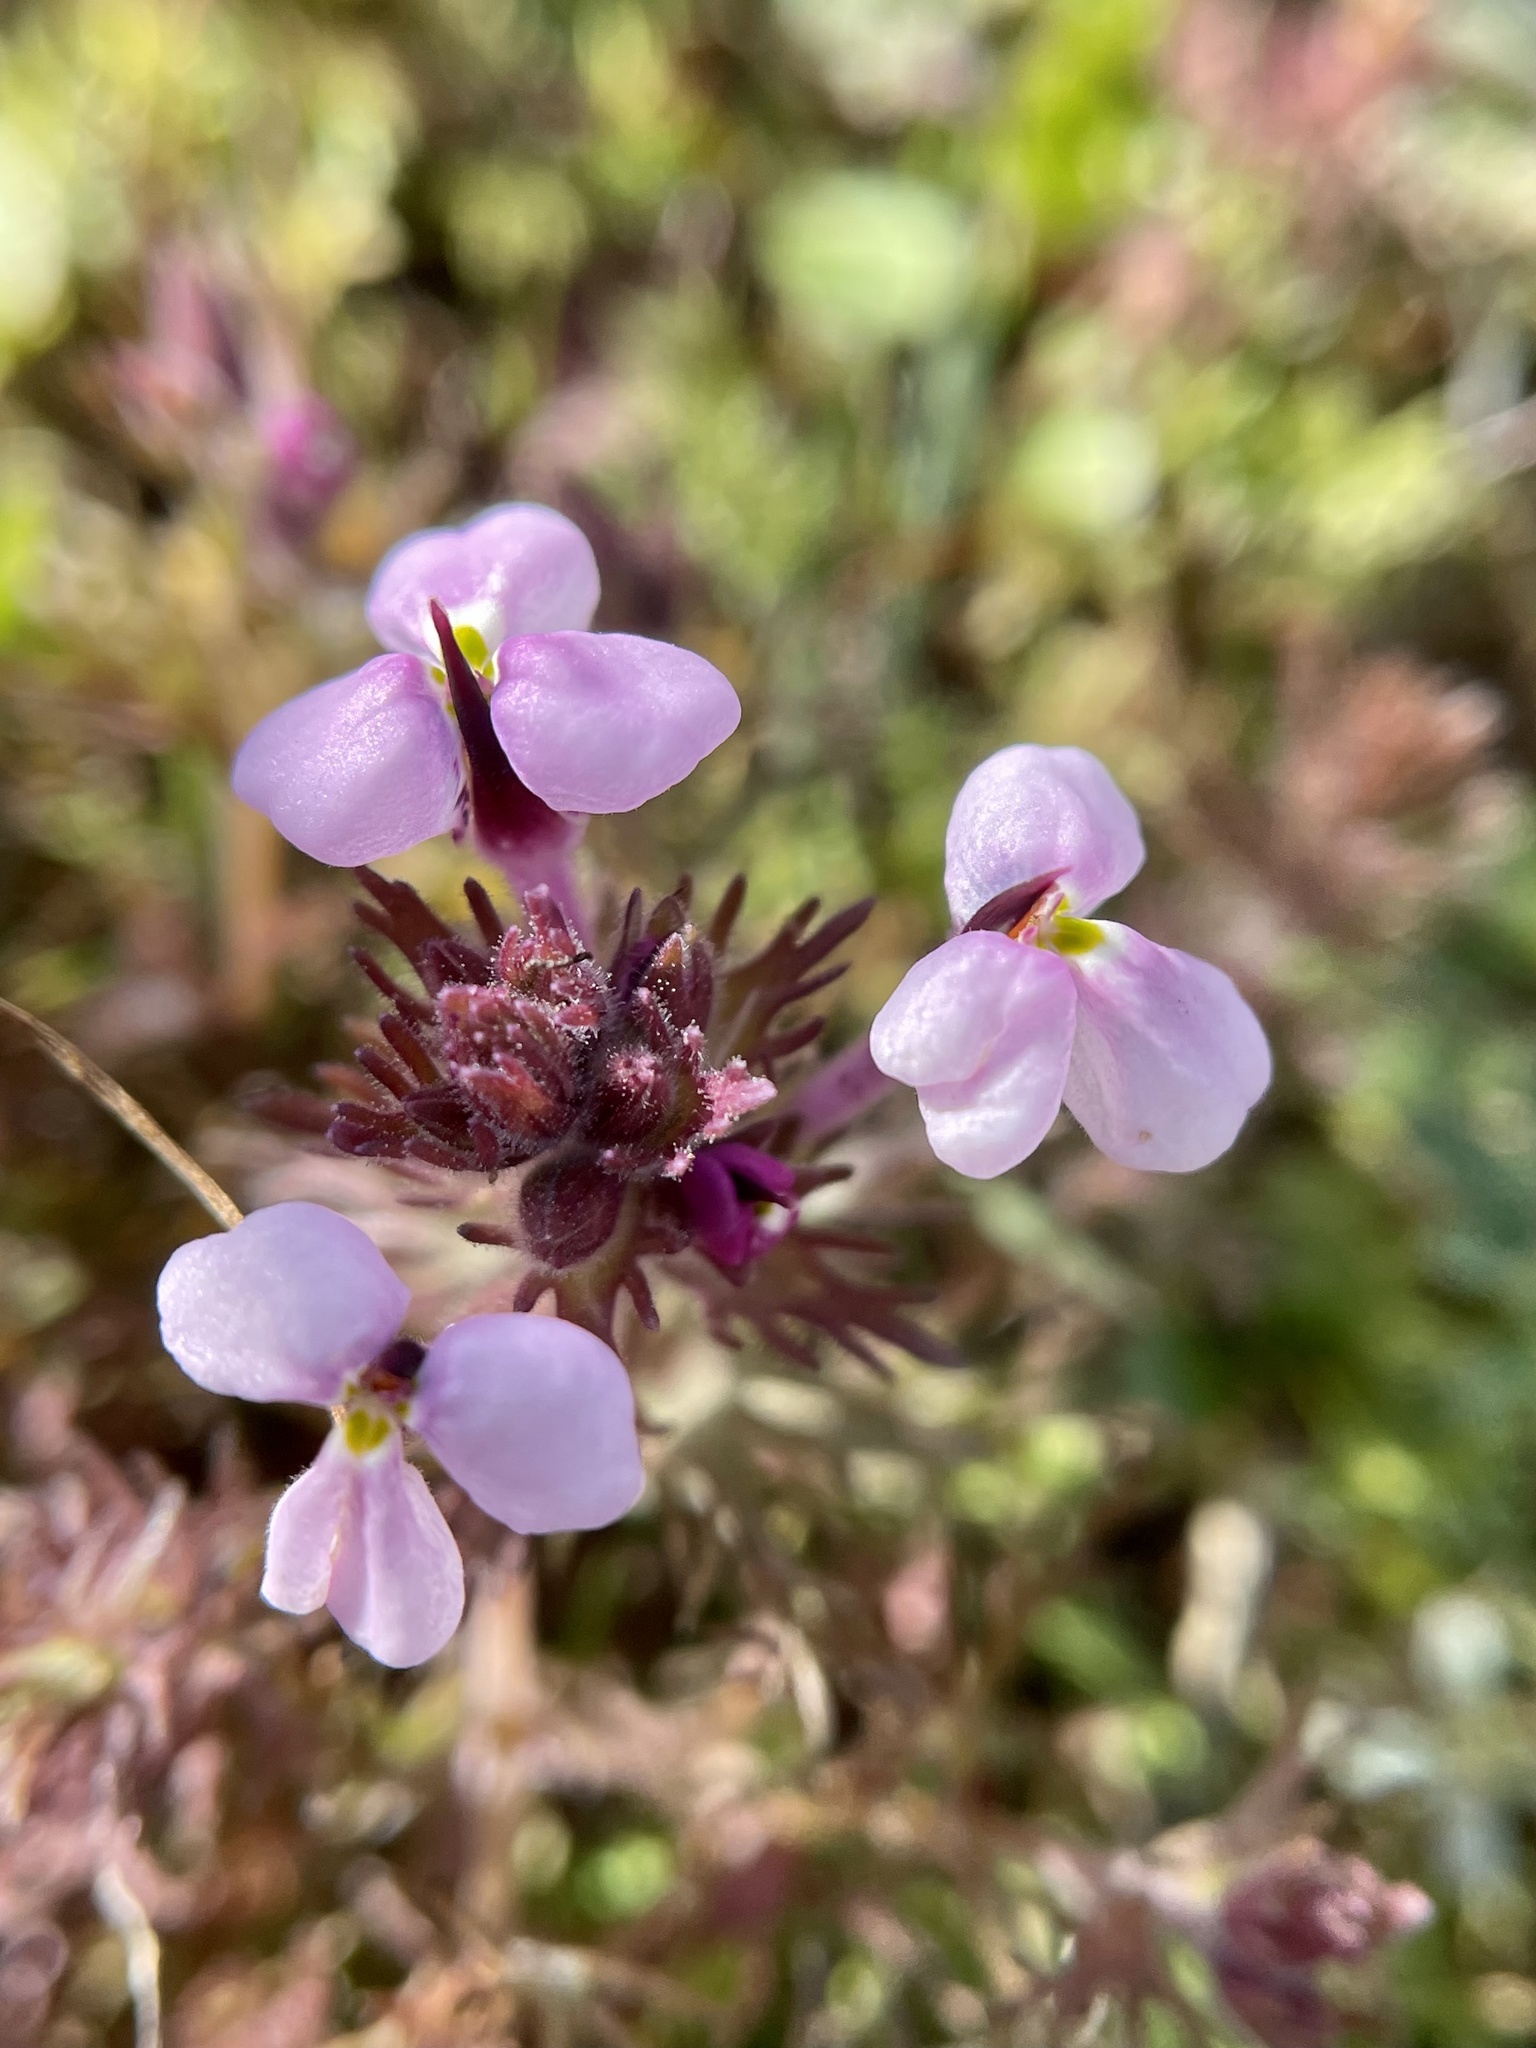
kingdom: Plantae
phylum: Tracheophyta
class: Magnoliopsida
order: Lamiales
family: Orobanchaceae
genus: Triphysaria
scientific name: Triphysaria eriantha
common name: Johnny-tuck
